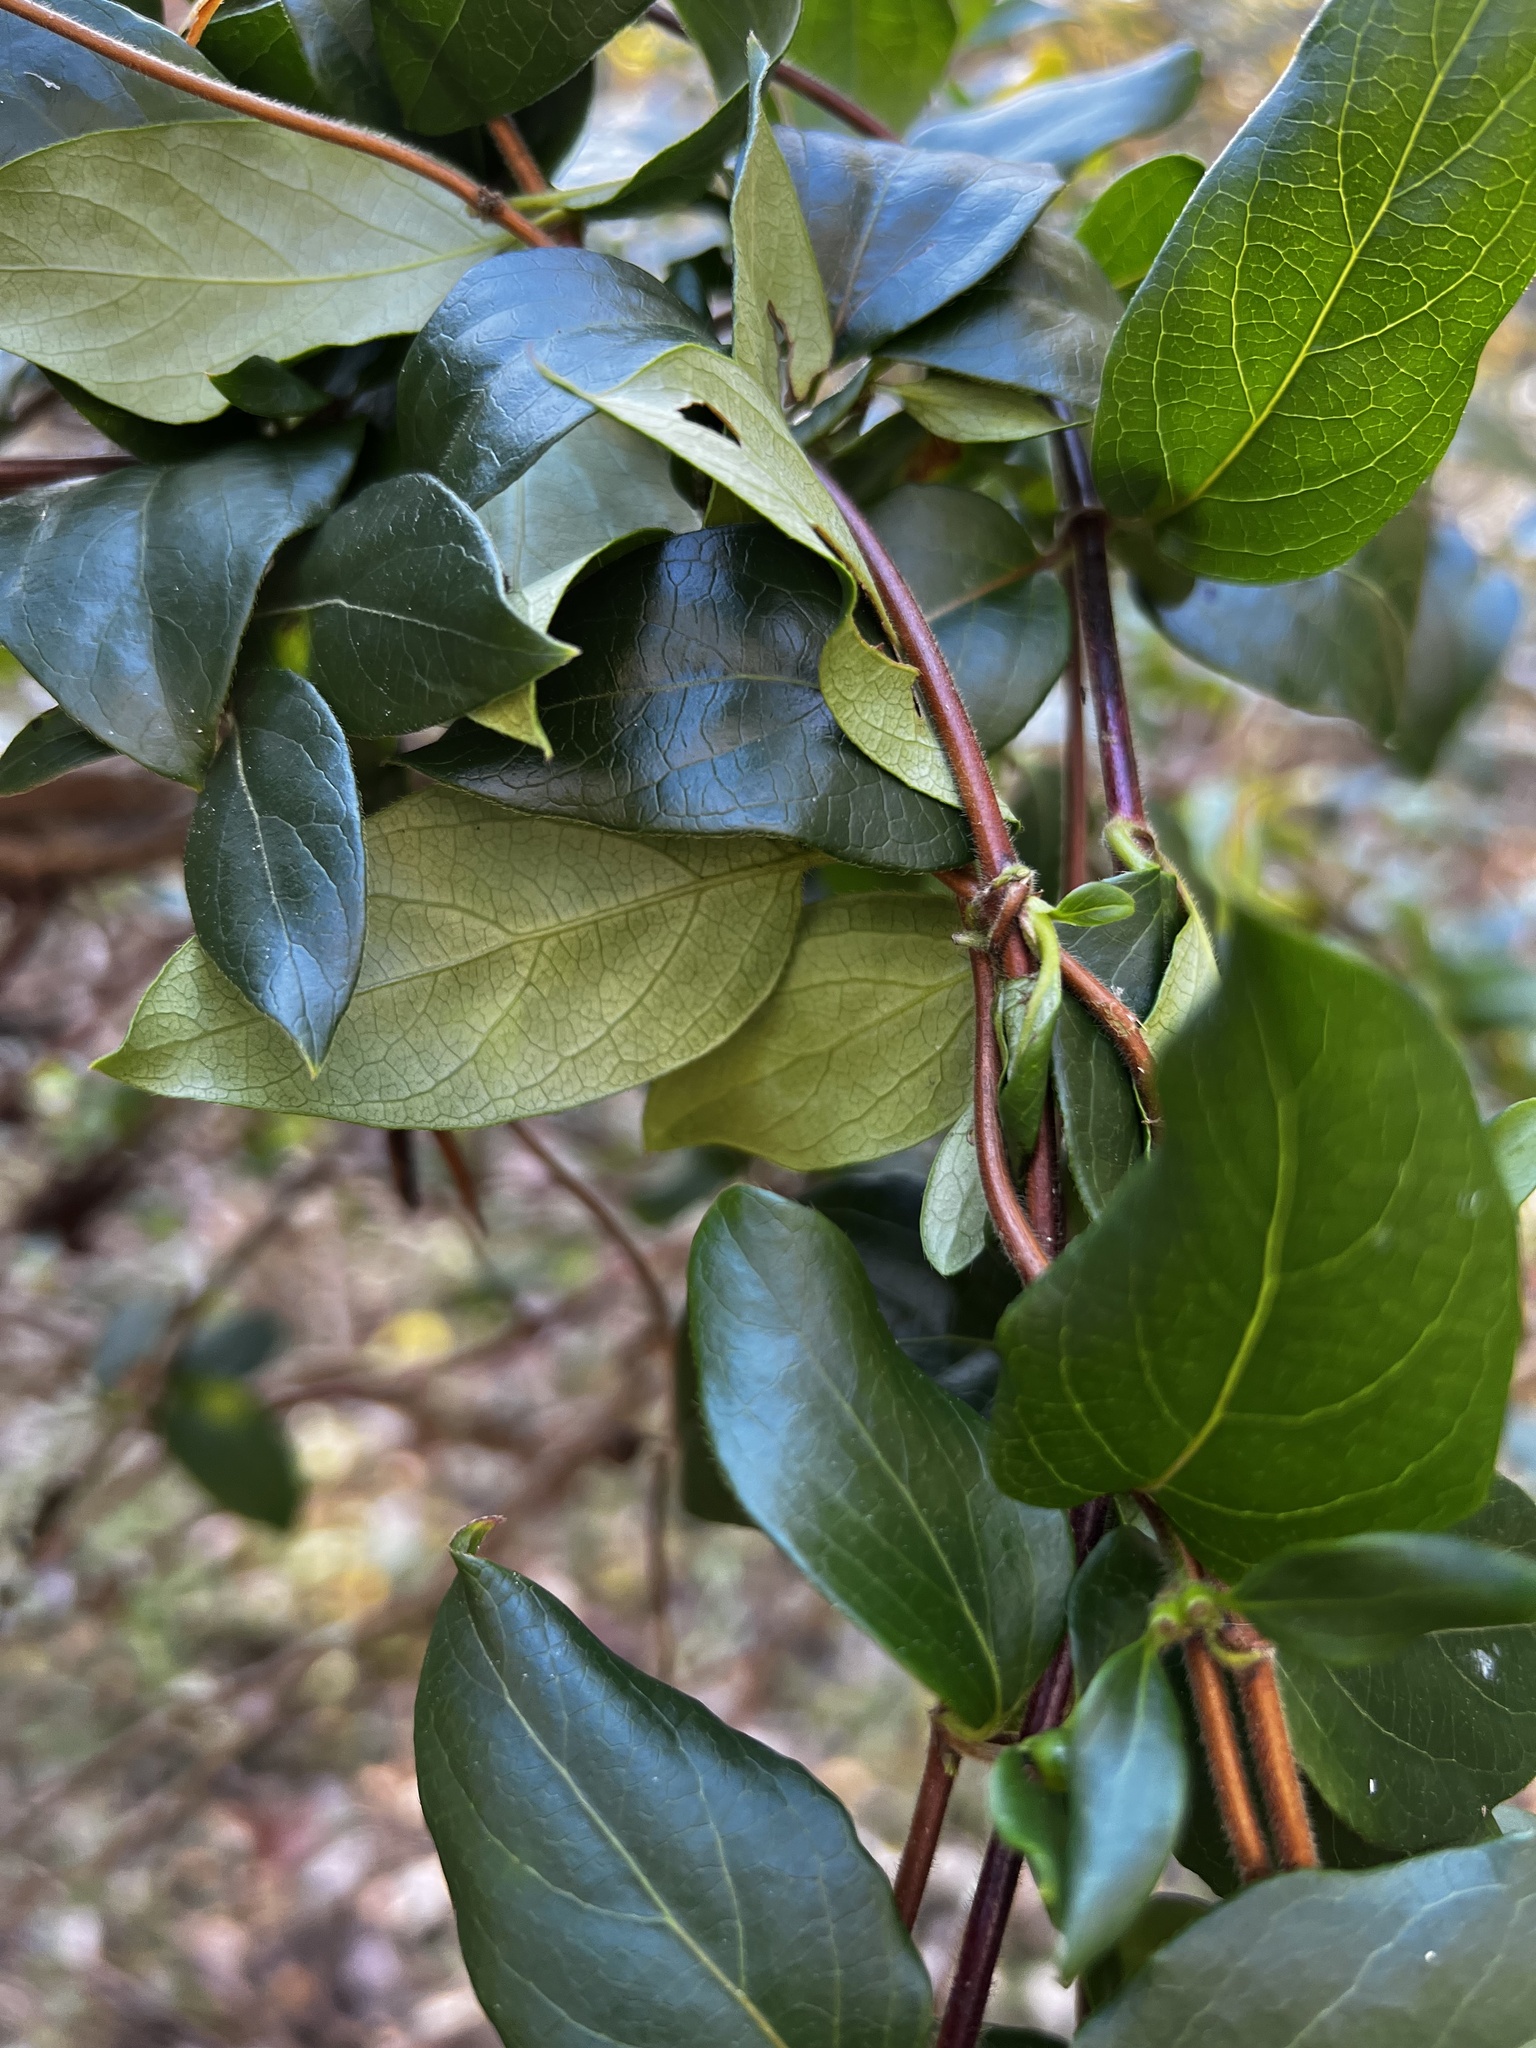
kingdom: Plantae
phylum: Tracheophyta
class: Magnoliopsida
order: Dipsacales
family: Caprifoliaceae
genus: Lonicera
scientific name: Lonicera japonica
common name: Japanese honeysuckle
